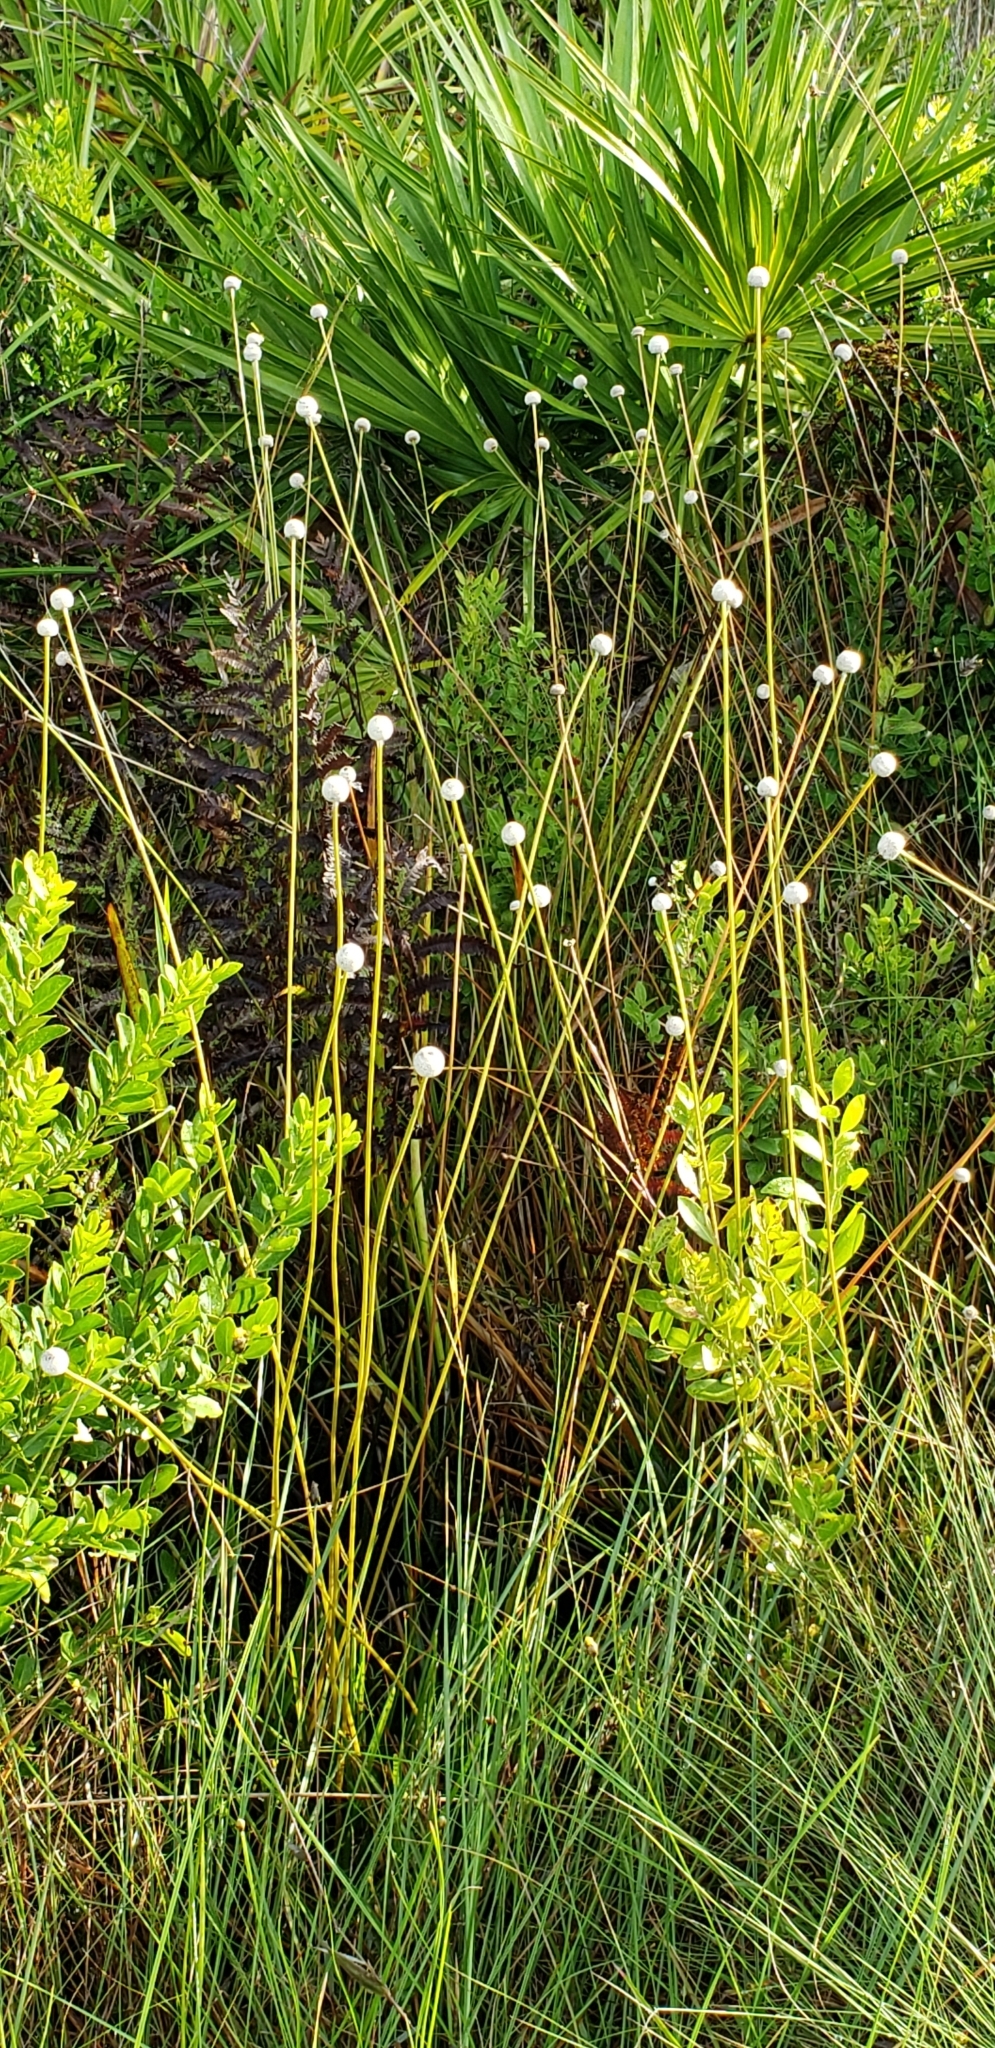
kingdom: Plantae
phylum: Tracheophyta
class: Liliopsida
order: Poales
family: Eriocaulaceae
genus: Eriocaulon
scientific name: Eriocaulon decangulare
